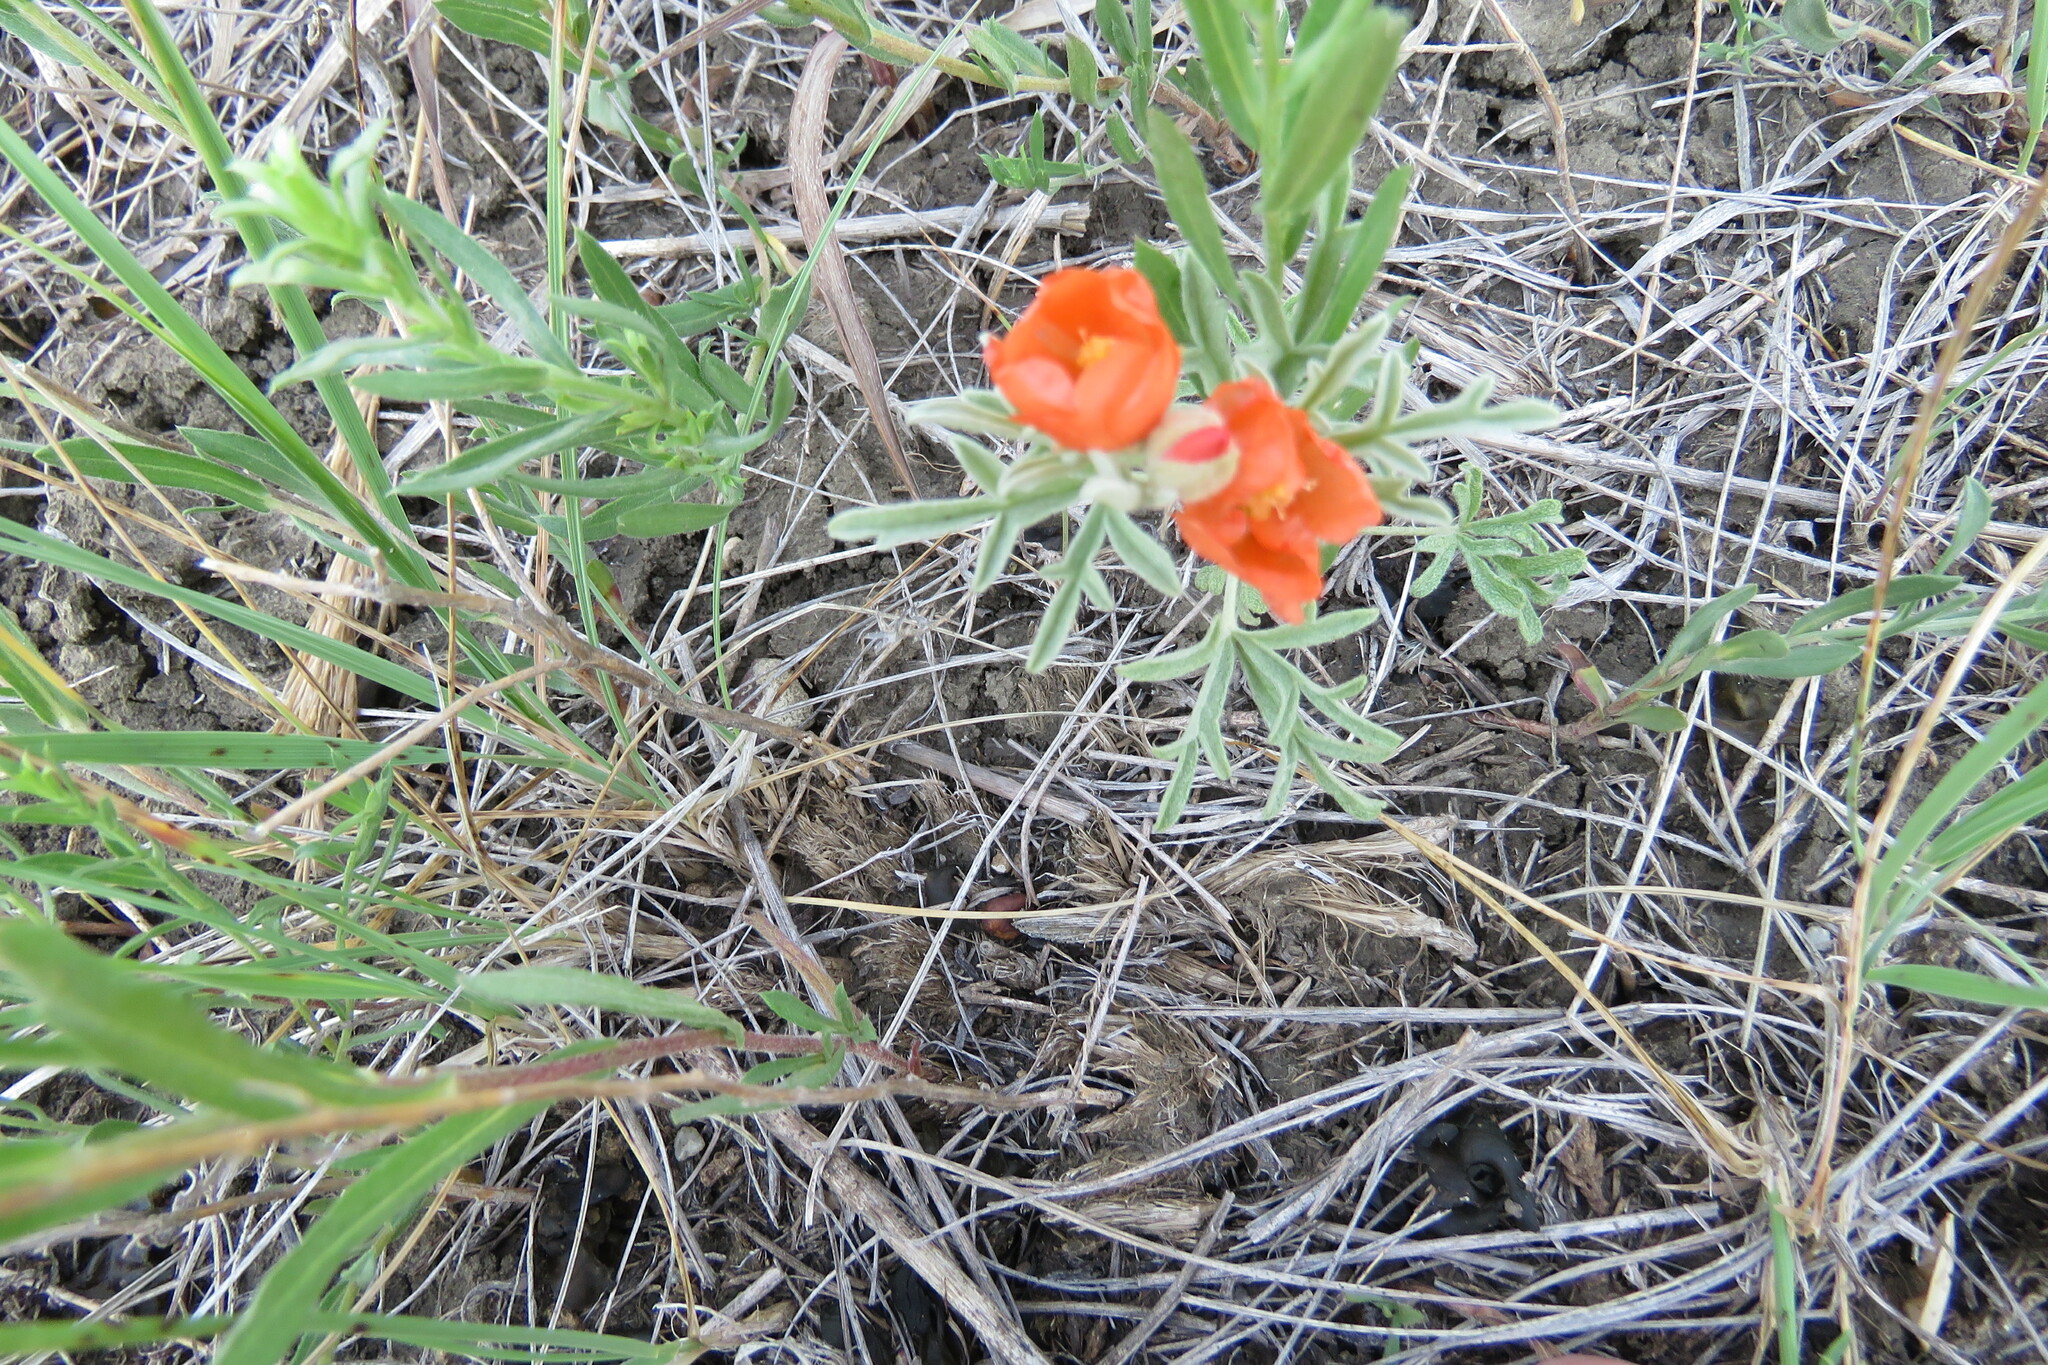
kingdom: Plantae
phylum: Tracheophyta
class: Magnoliopsida
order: Malvales
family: Malvaceae
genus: Sphaeralcea
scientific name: Sphaeralcea coccinea
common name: Moss-rose
